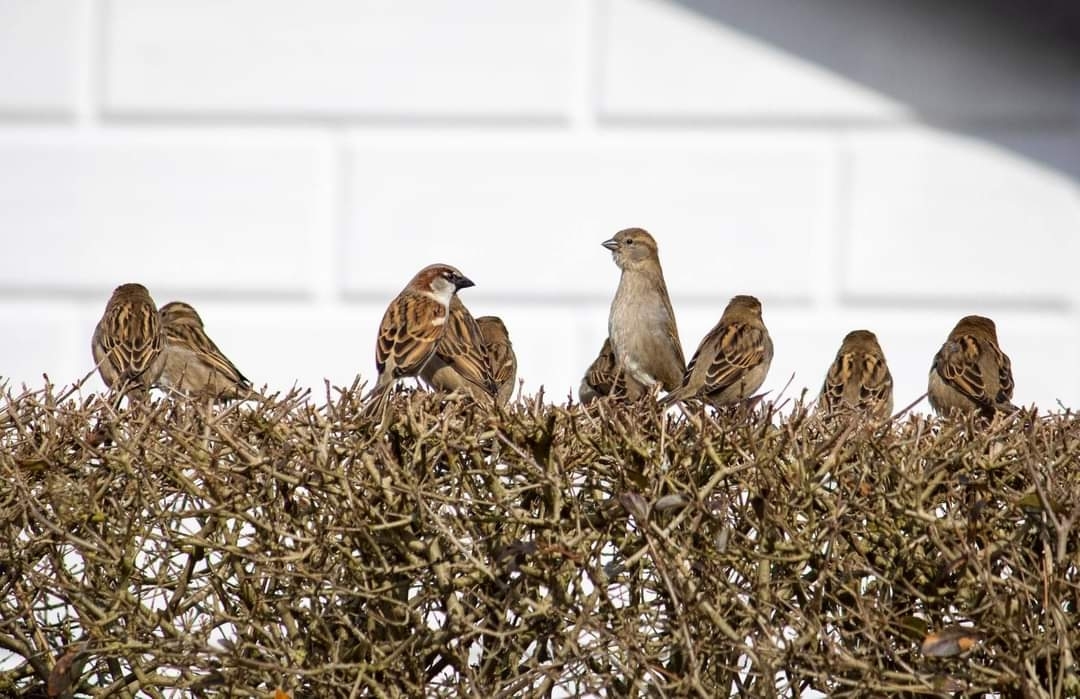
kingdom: Animalia
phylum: Chordata
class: Aves
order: Passeriformes
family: Passeridae
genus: Passer
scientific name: Passer domesticus
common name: House sparrow
